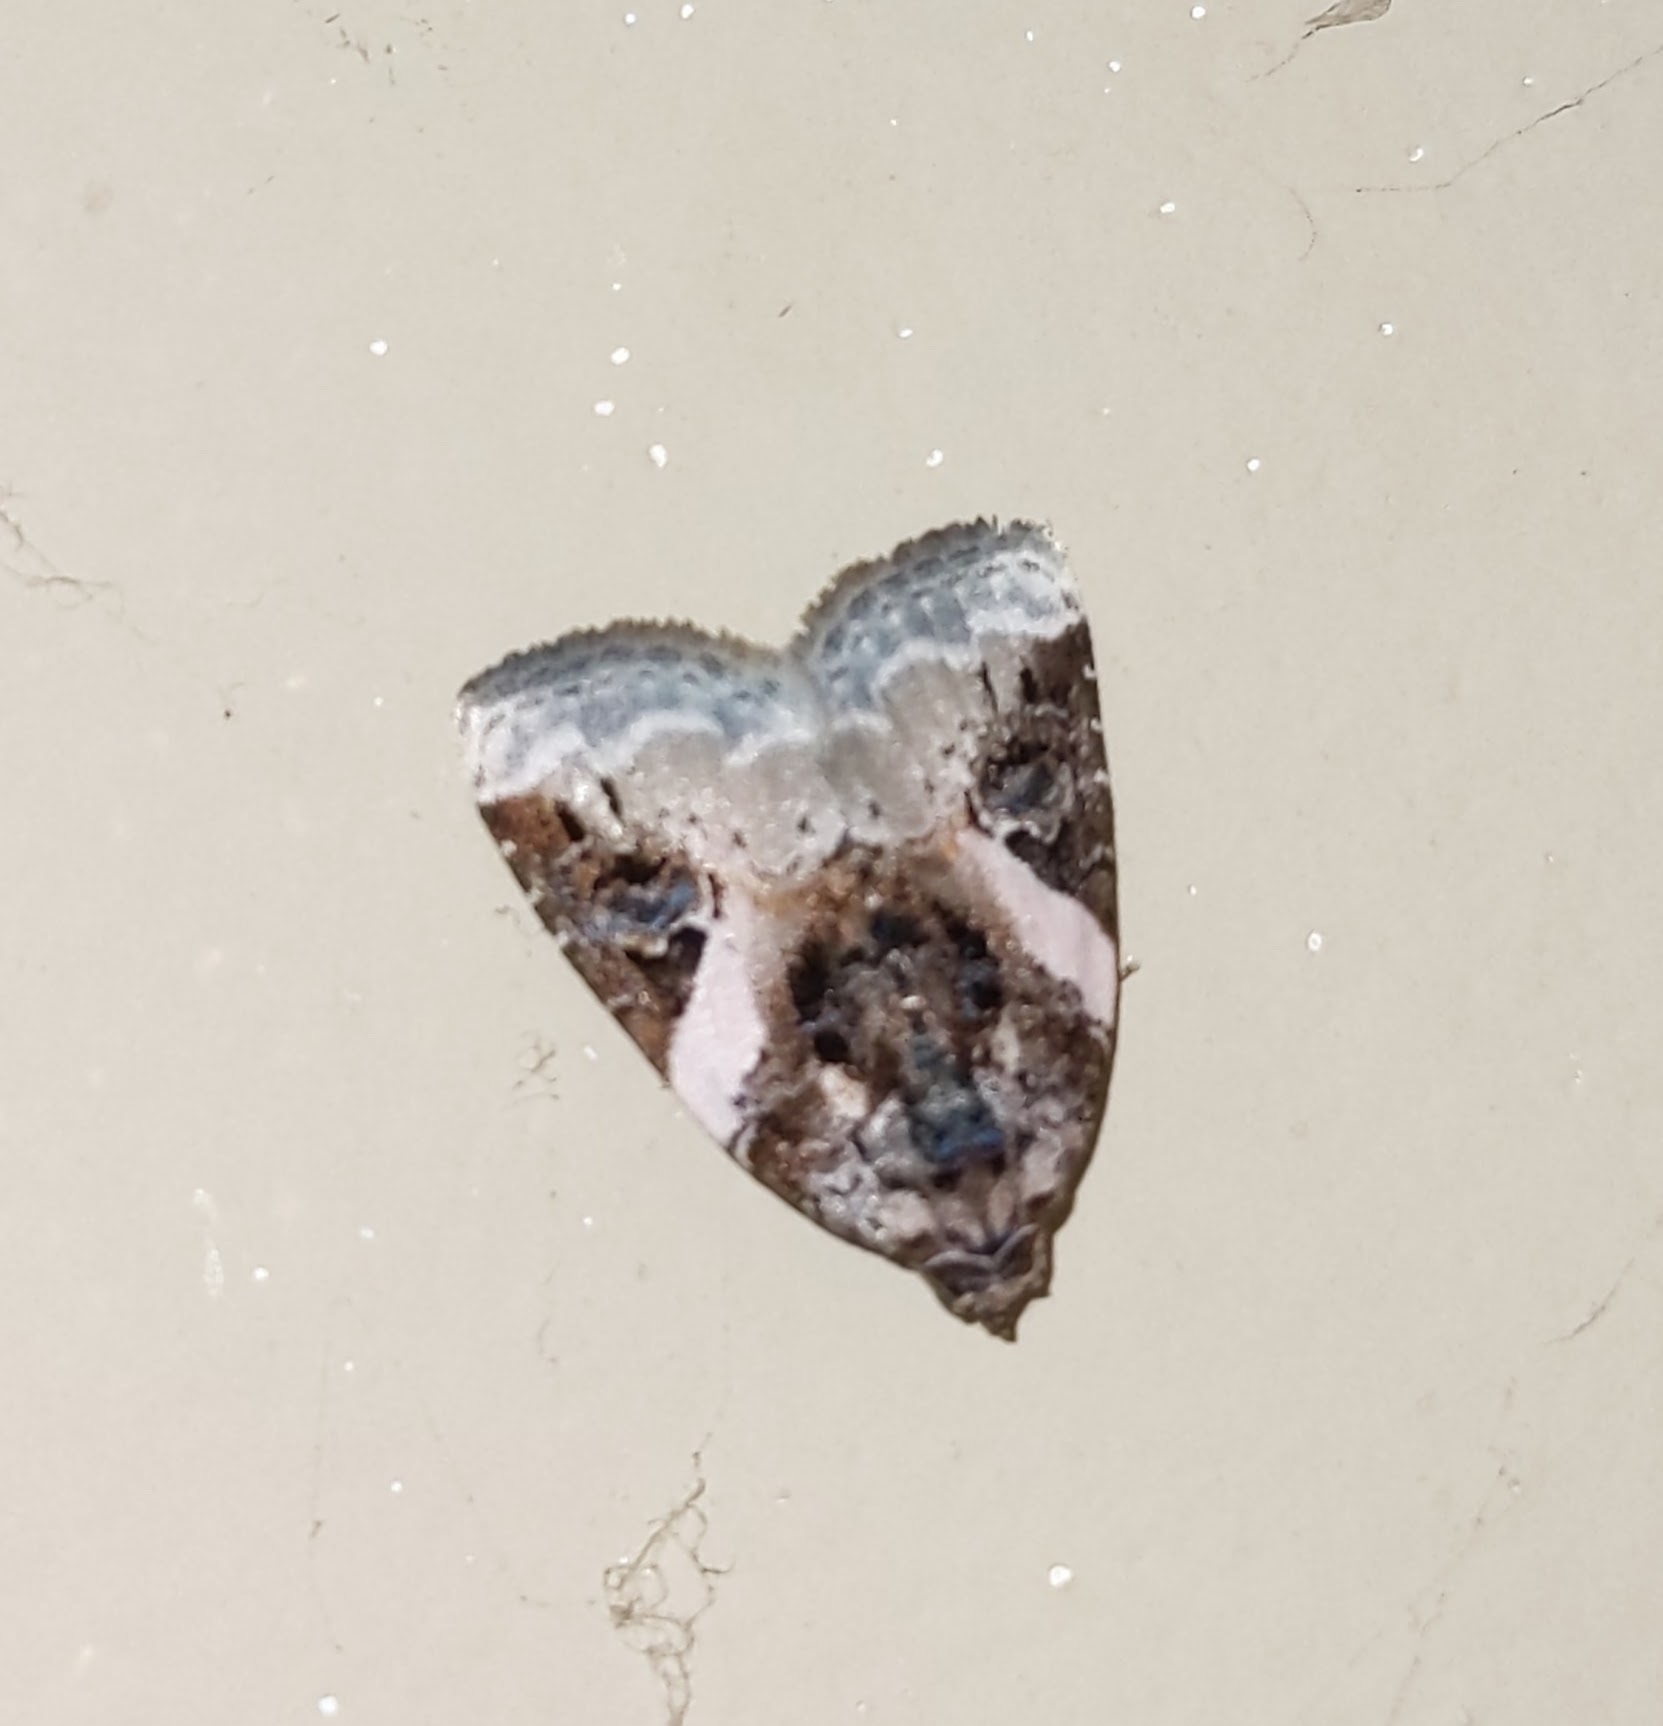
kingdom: Animalia
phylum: Arthropoda
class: Insecta
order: Lepidoptera
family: Noctuidae
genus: Pseudeustrotia
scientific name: Pseudeustrotia carneola
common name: Pink-barred lithacodia moth
